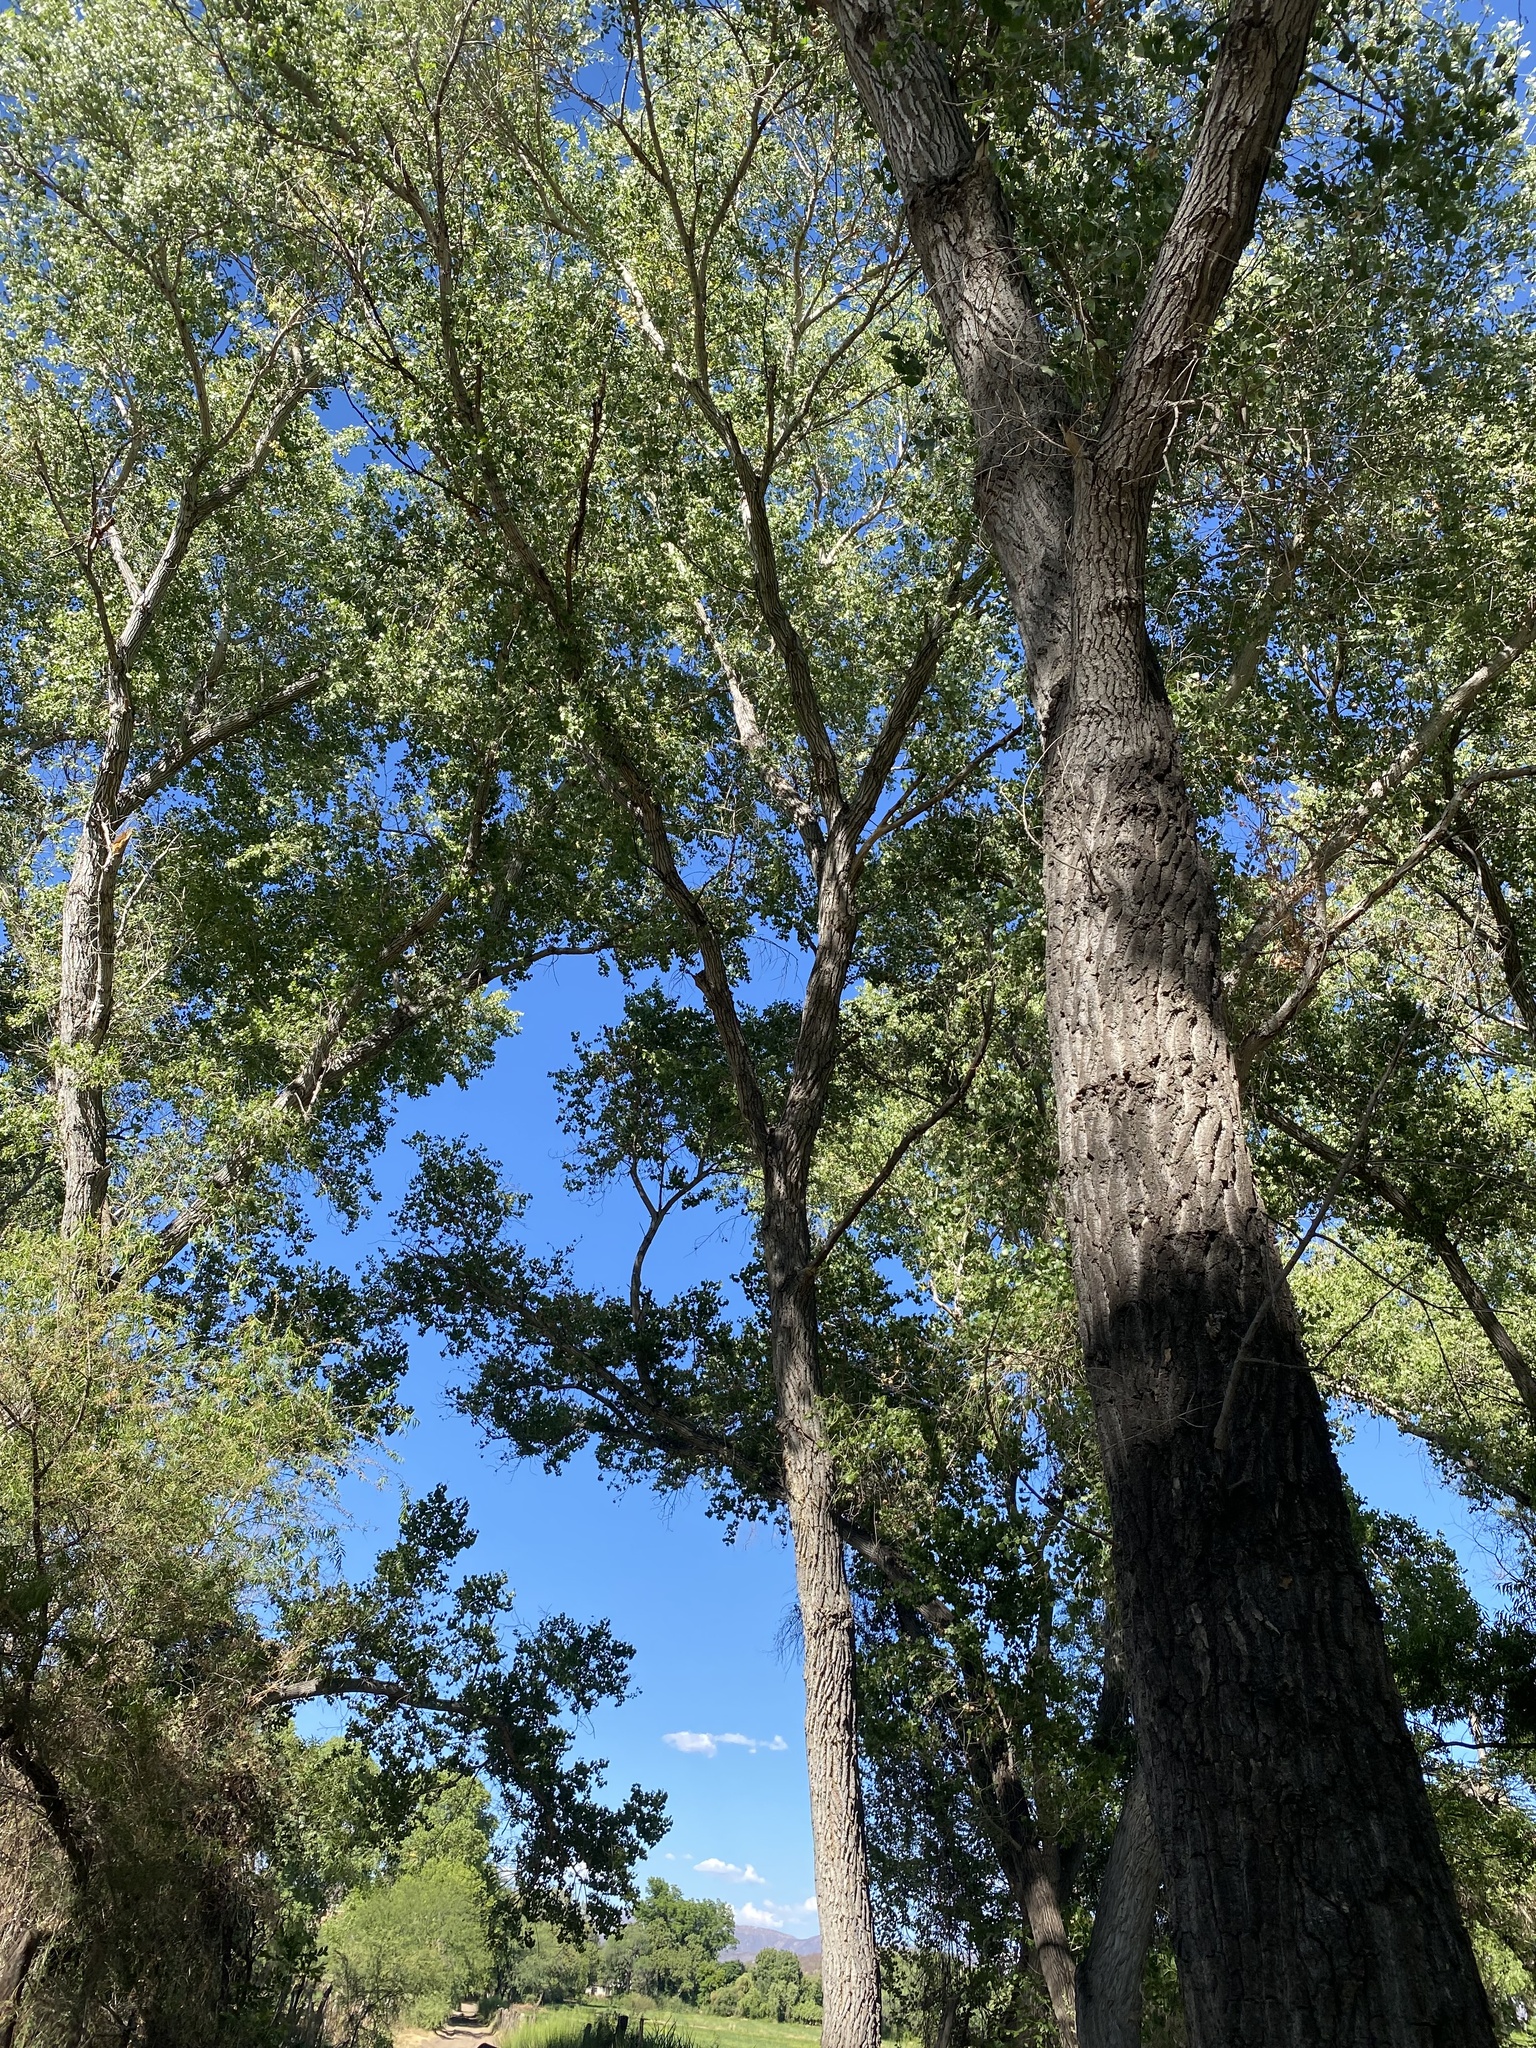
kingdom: Plantae
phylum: Tracheophyta
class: Magnoliopsida
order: Malpighiales
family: Salicaceae
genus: Populus
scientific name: Populus fremontii
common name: Fremont's cottonwood
